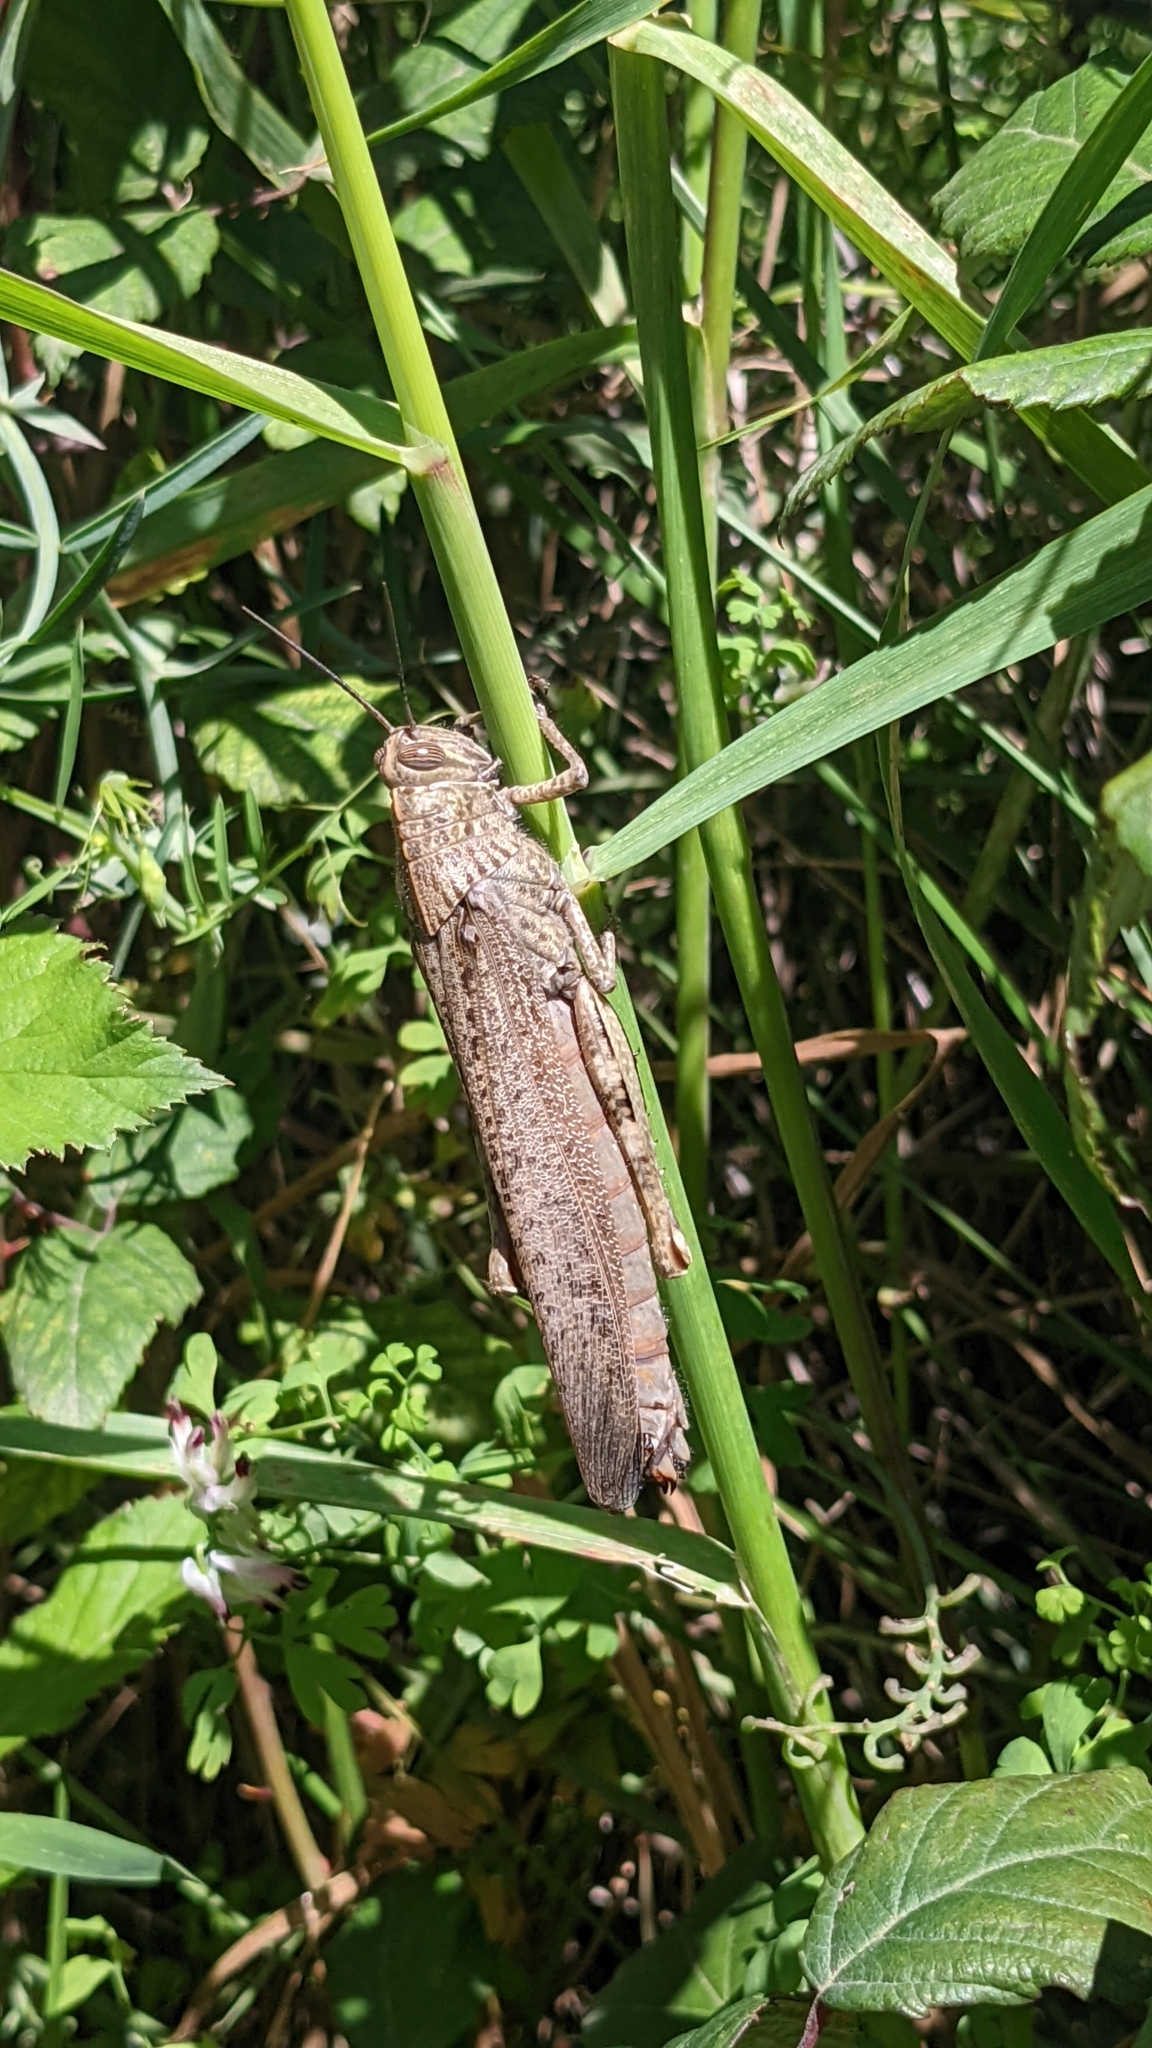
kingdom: Animalia
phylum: Arthropoda
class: Insecta
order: Orthoptera
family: Acrididae
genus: Anacridium
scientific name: Anacridium aegyptium
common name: Egyptian grasshopper
